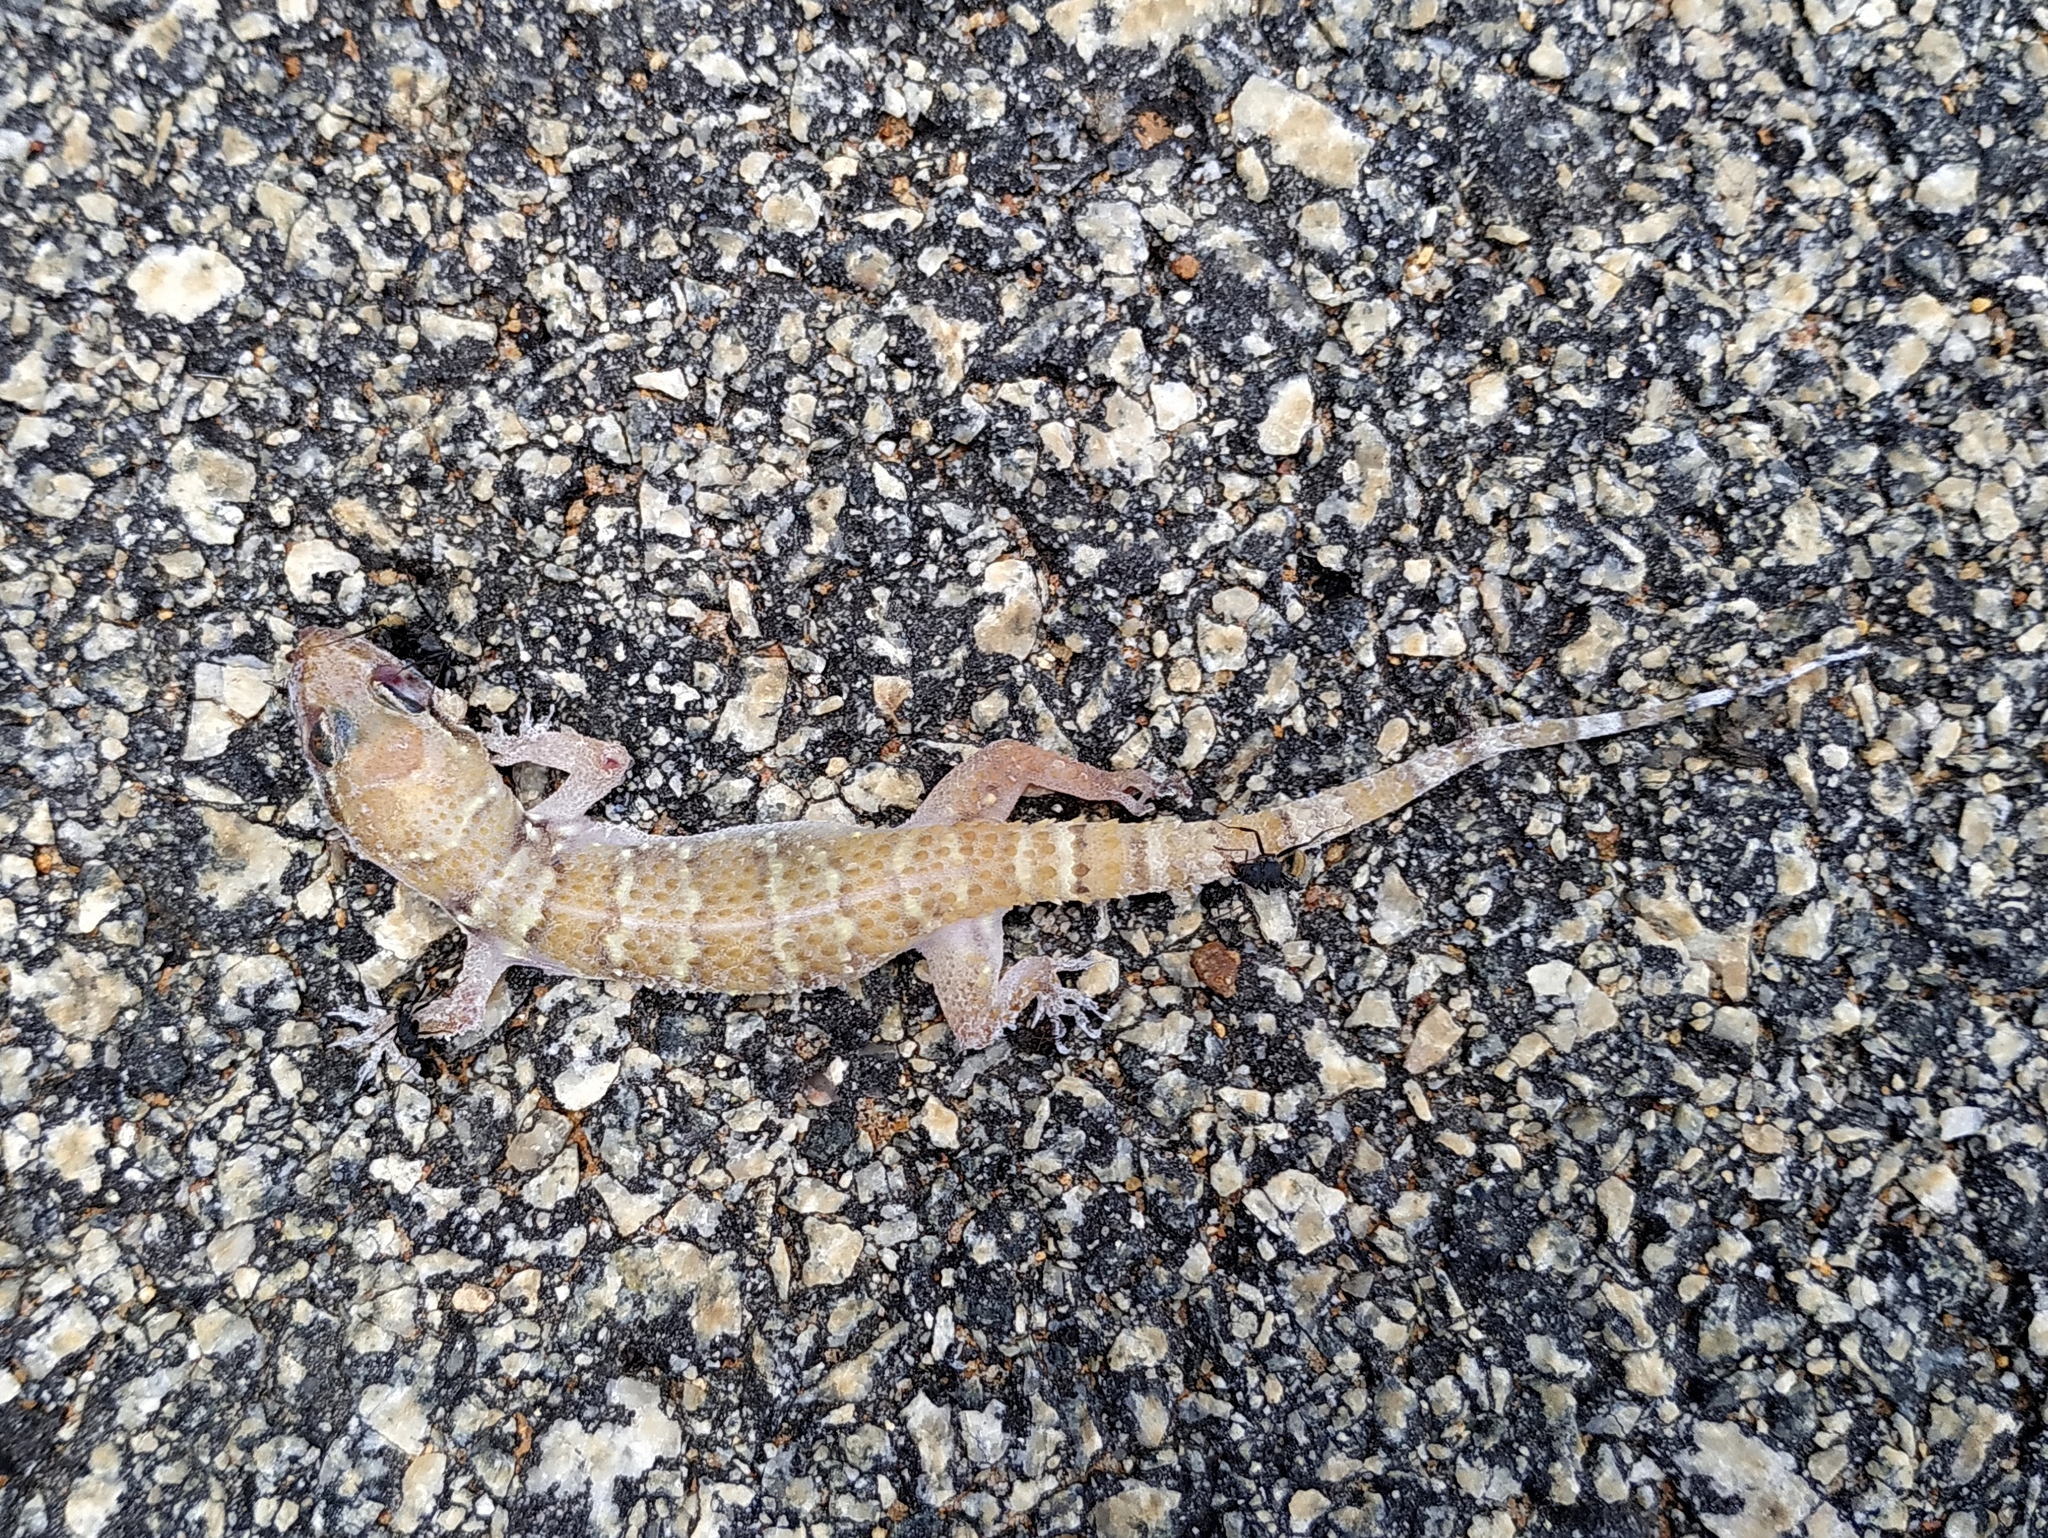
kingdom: Animalia
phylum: Chordata
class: Squamata
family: Gekkonidae
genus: Hemidactylus
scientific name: Hemidactylus whitakeri
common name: Whitaker’s termite hill gecko
